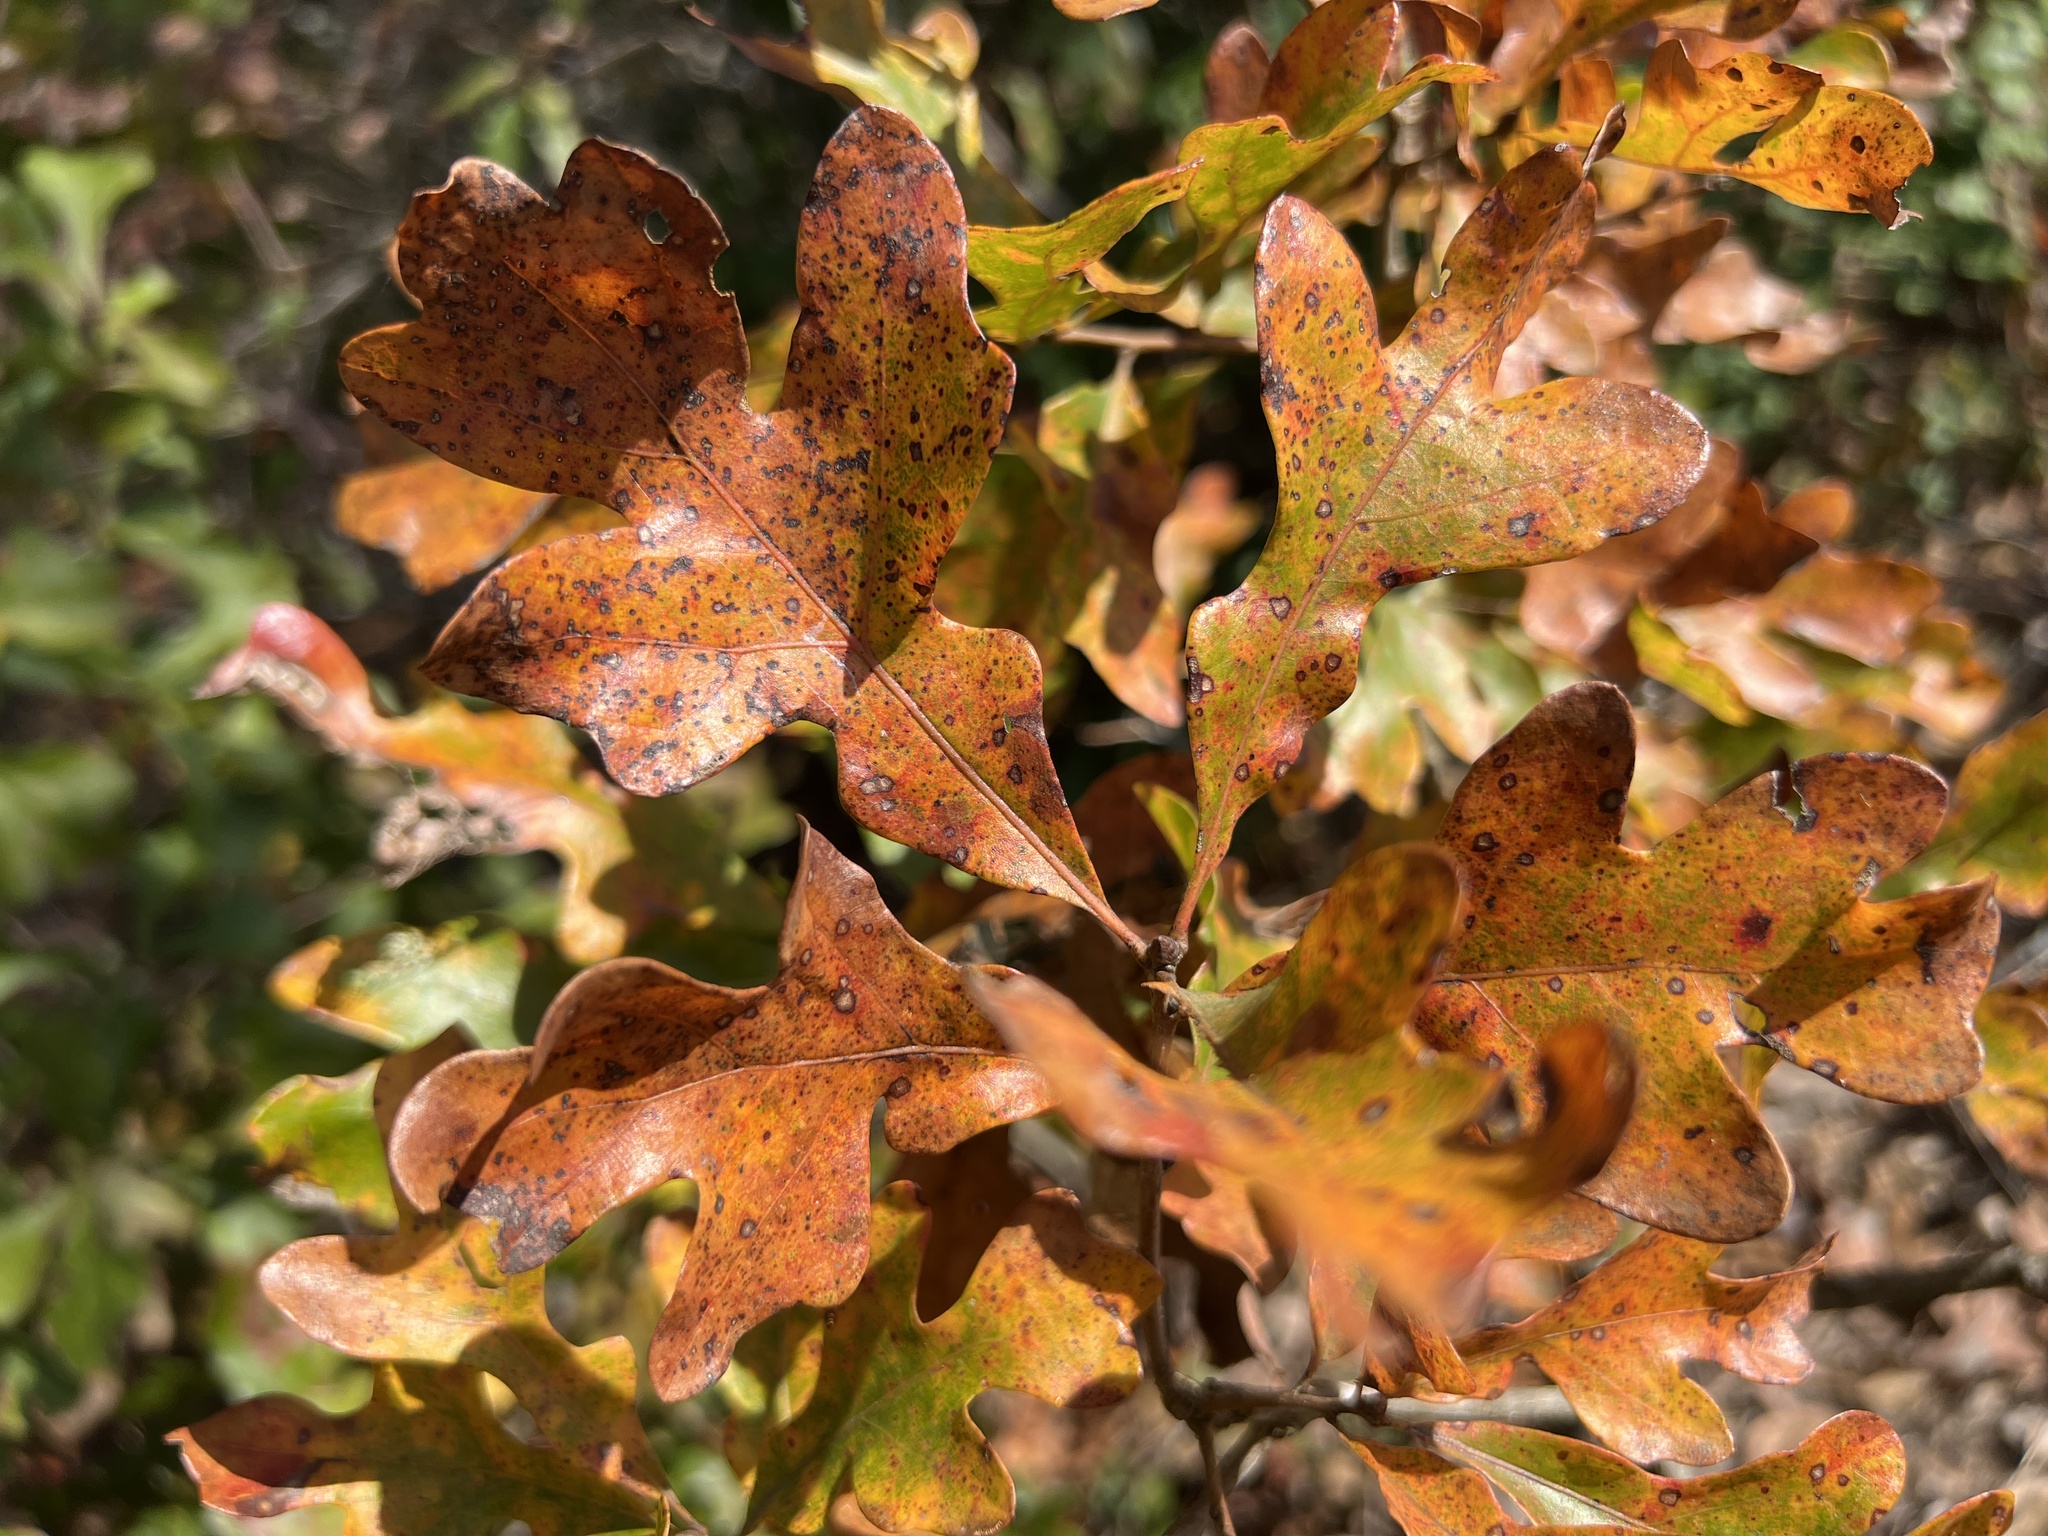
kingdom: Plantae
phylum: Tracheophyta
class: Magnoliopsida
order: Fagales
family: Fagaceae
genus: Quercus
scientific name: Quercus margaretiae
